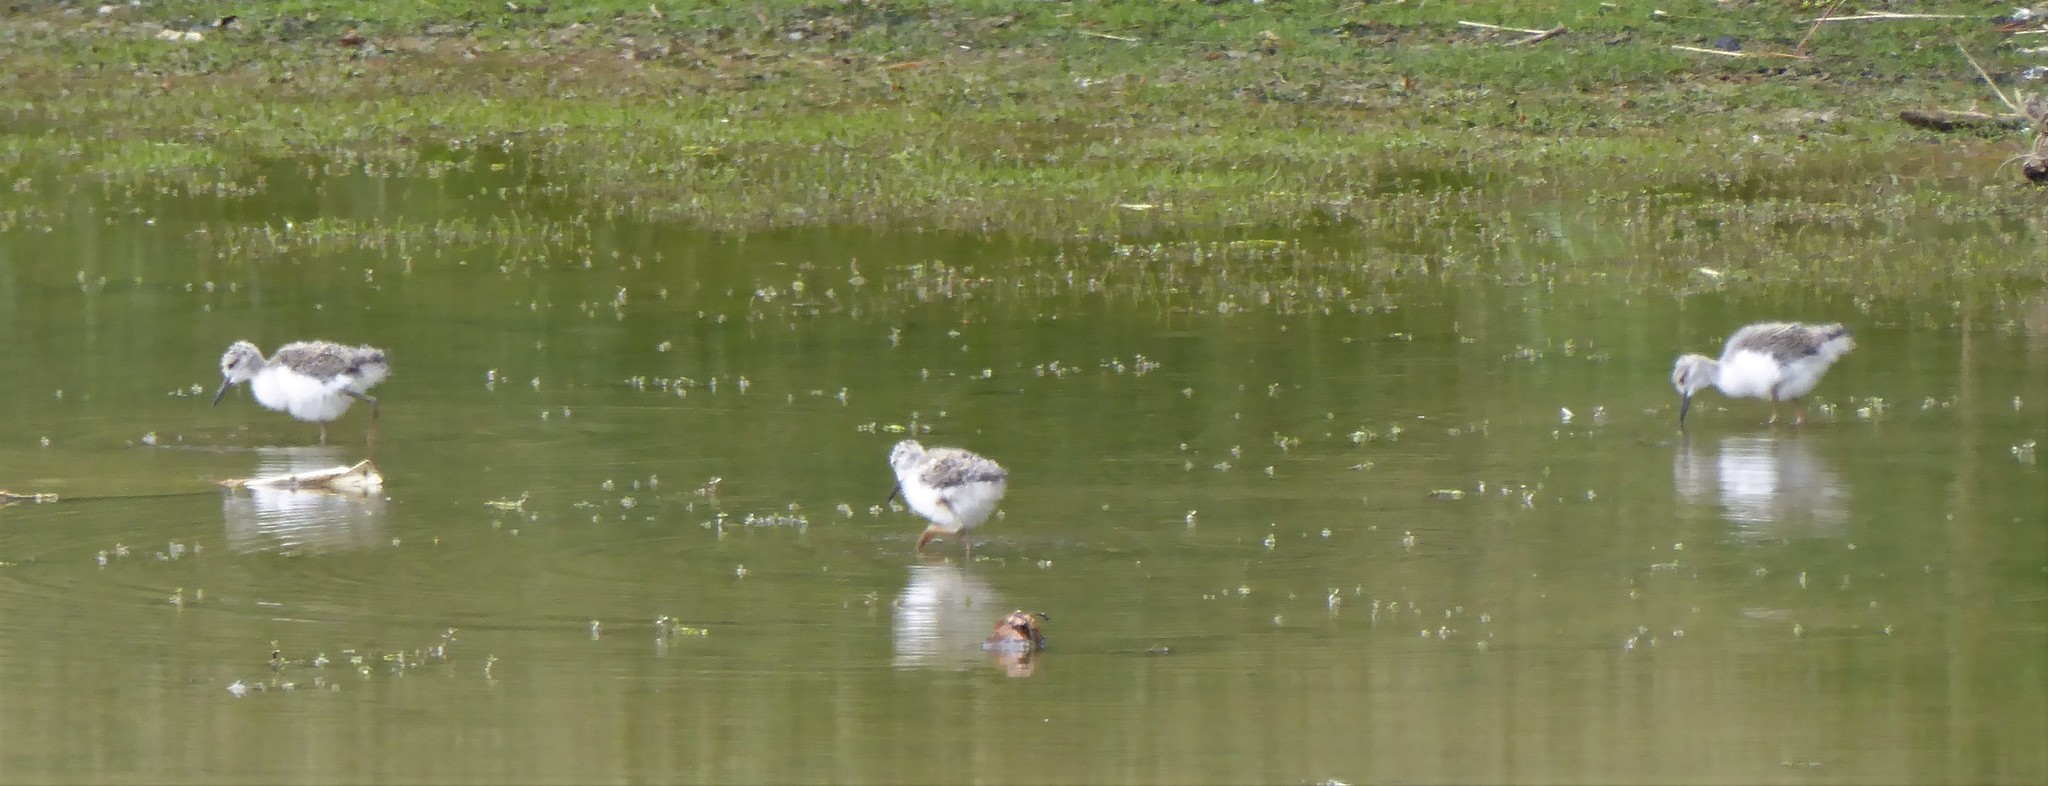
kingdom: Animalia
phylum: Chordata
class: Aves
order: Charadriiformes
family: Recurvirostridae
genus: Himantopus
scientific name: Himantopus leucocephalus
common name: White-headed stilt
